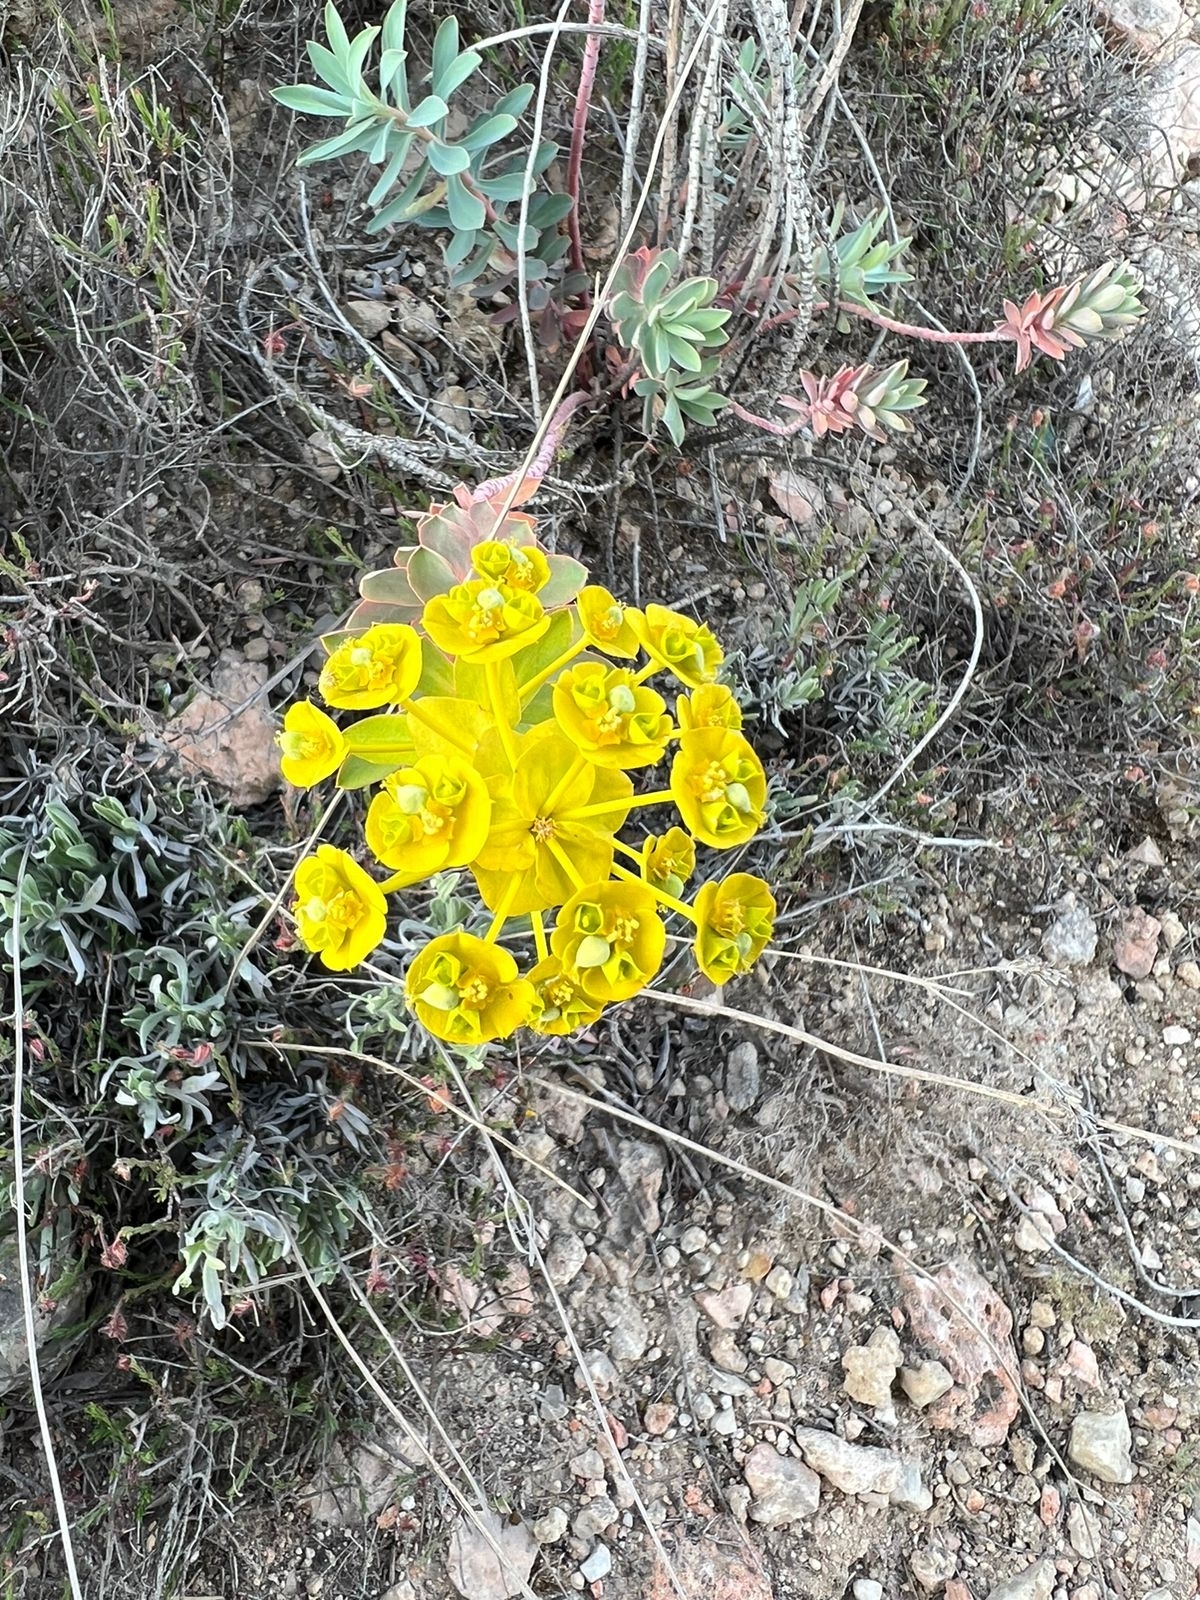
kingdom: Plantae
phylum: Tracheophyta
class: Magnoliopsida
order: Malpighiales
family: Euphorbiaceae
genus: Euphorbia
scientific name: Euphorbia nicaeensis
